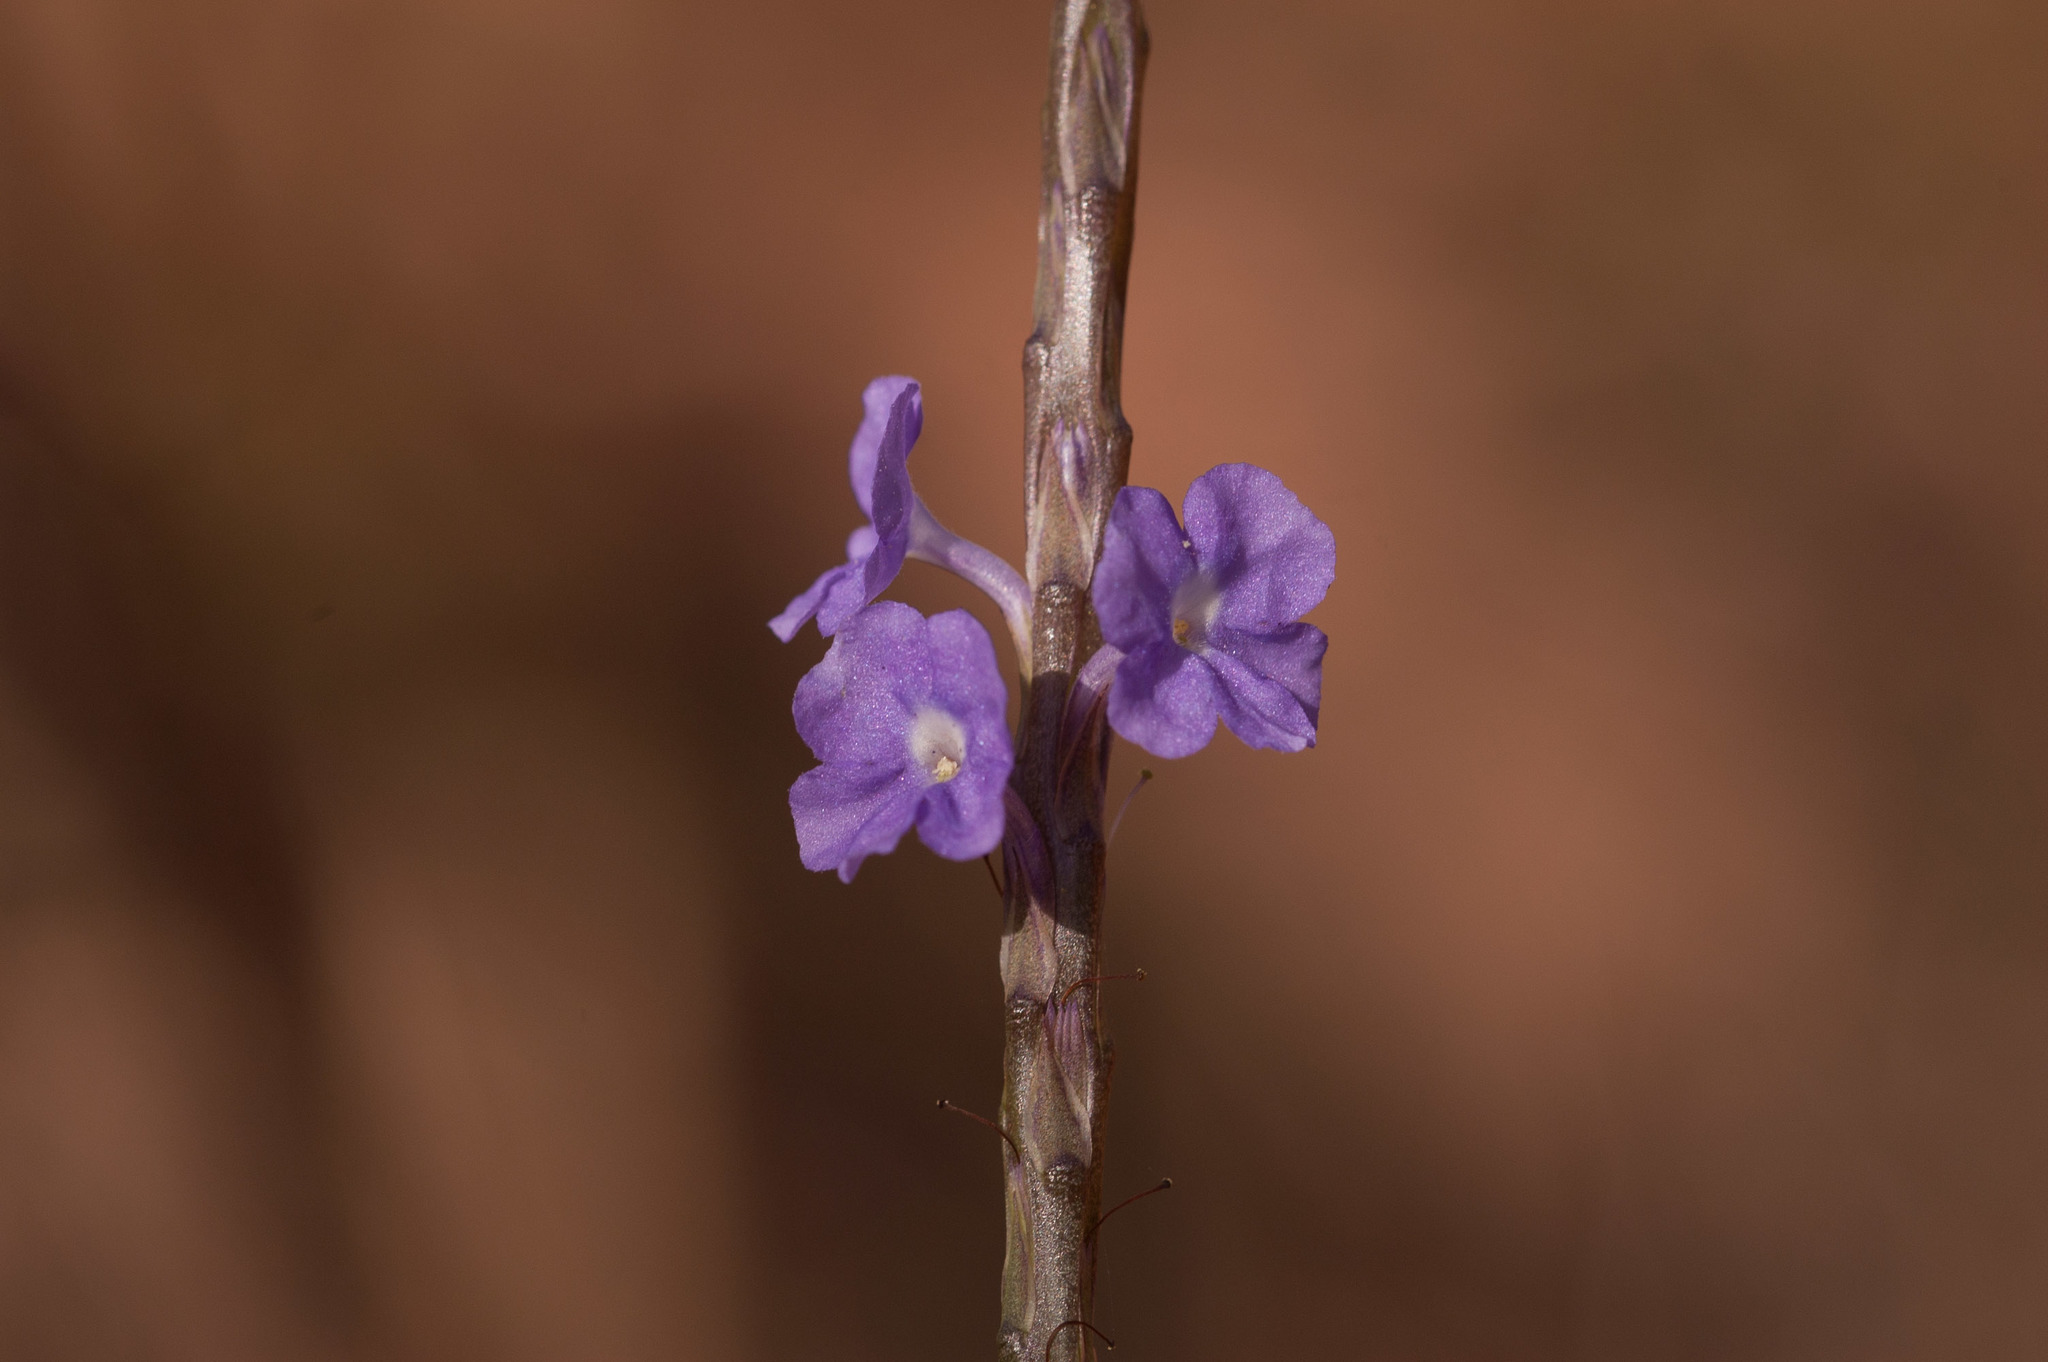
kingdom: Plantae
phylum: Tracheophyta
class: Magnoliopsida
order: Lamiales
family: Verbenaceae
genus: Stachytarpheta
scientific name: Stachytarpheta cayennensis
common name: Cayenne porterweed
